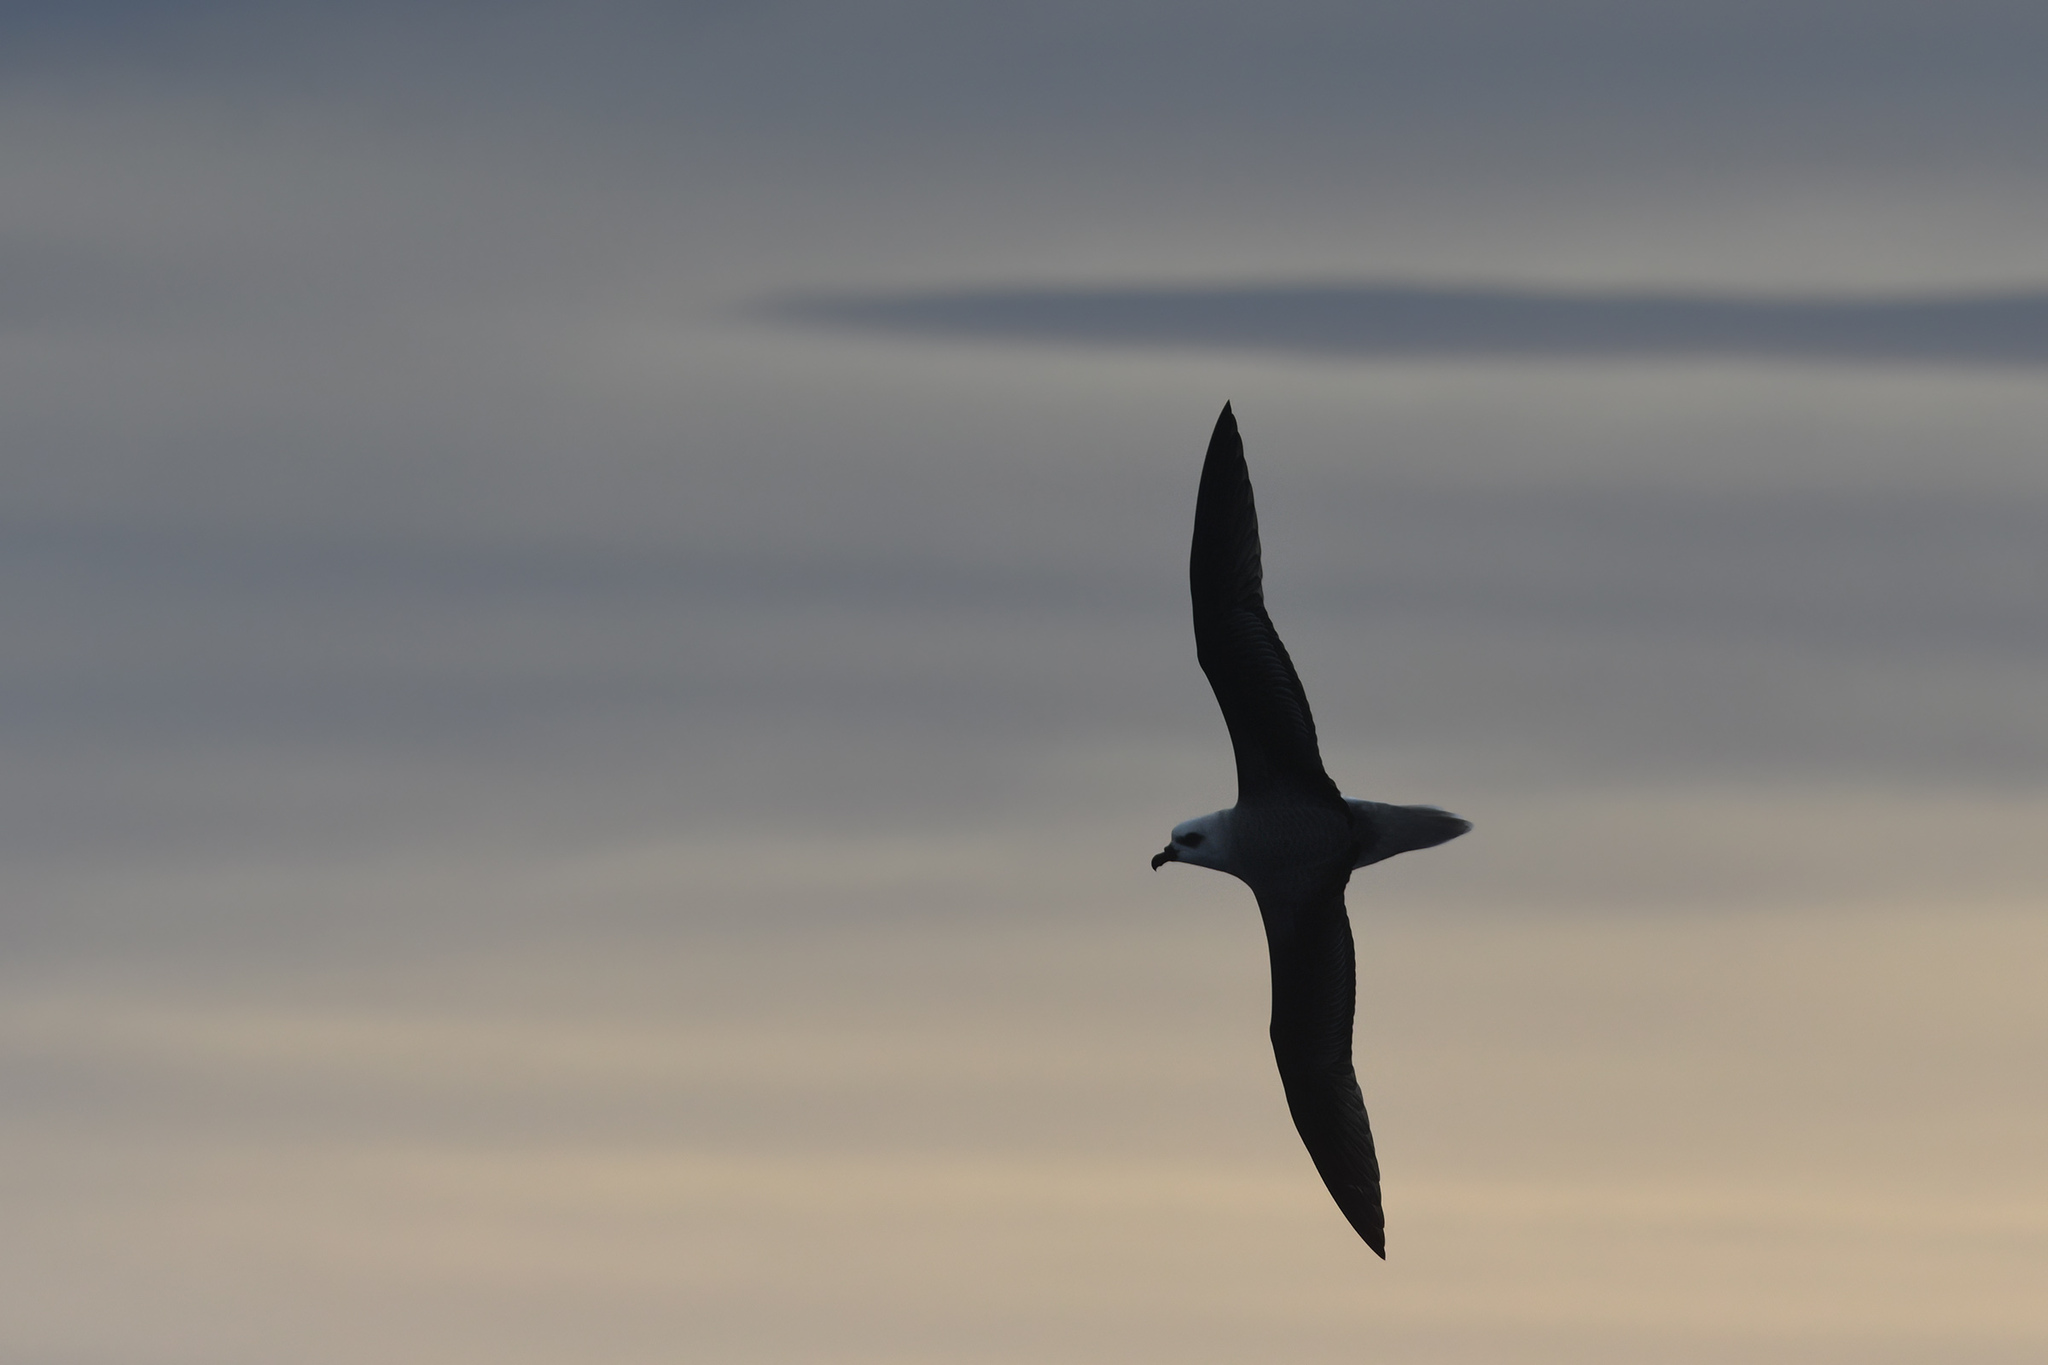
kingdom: Animalia
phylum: Chordata
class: Aves
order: Procellariiformes
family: Procellariidae
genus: Pterodroma
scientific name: Pterodroma lessonii
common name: White-headed petrel
